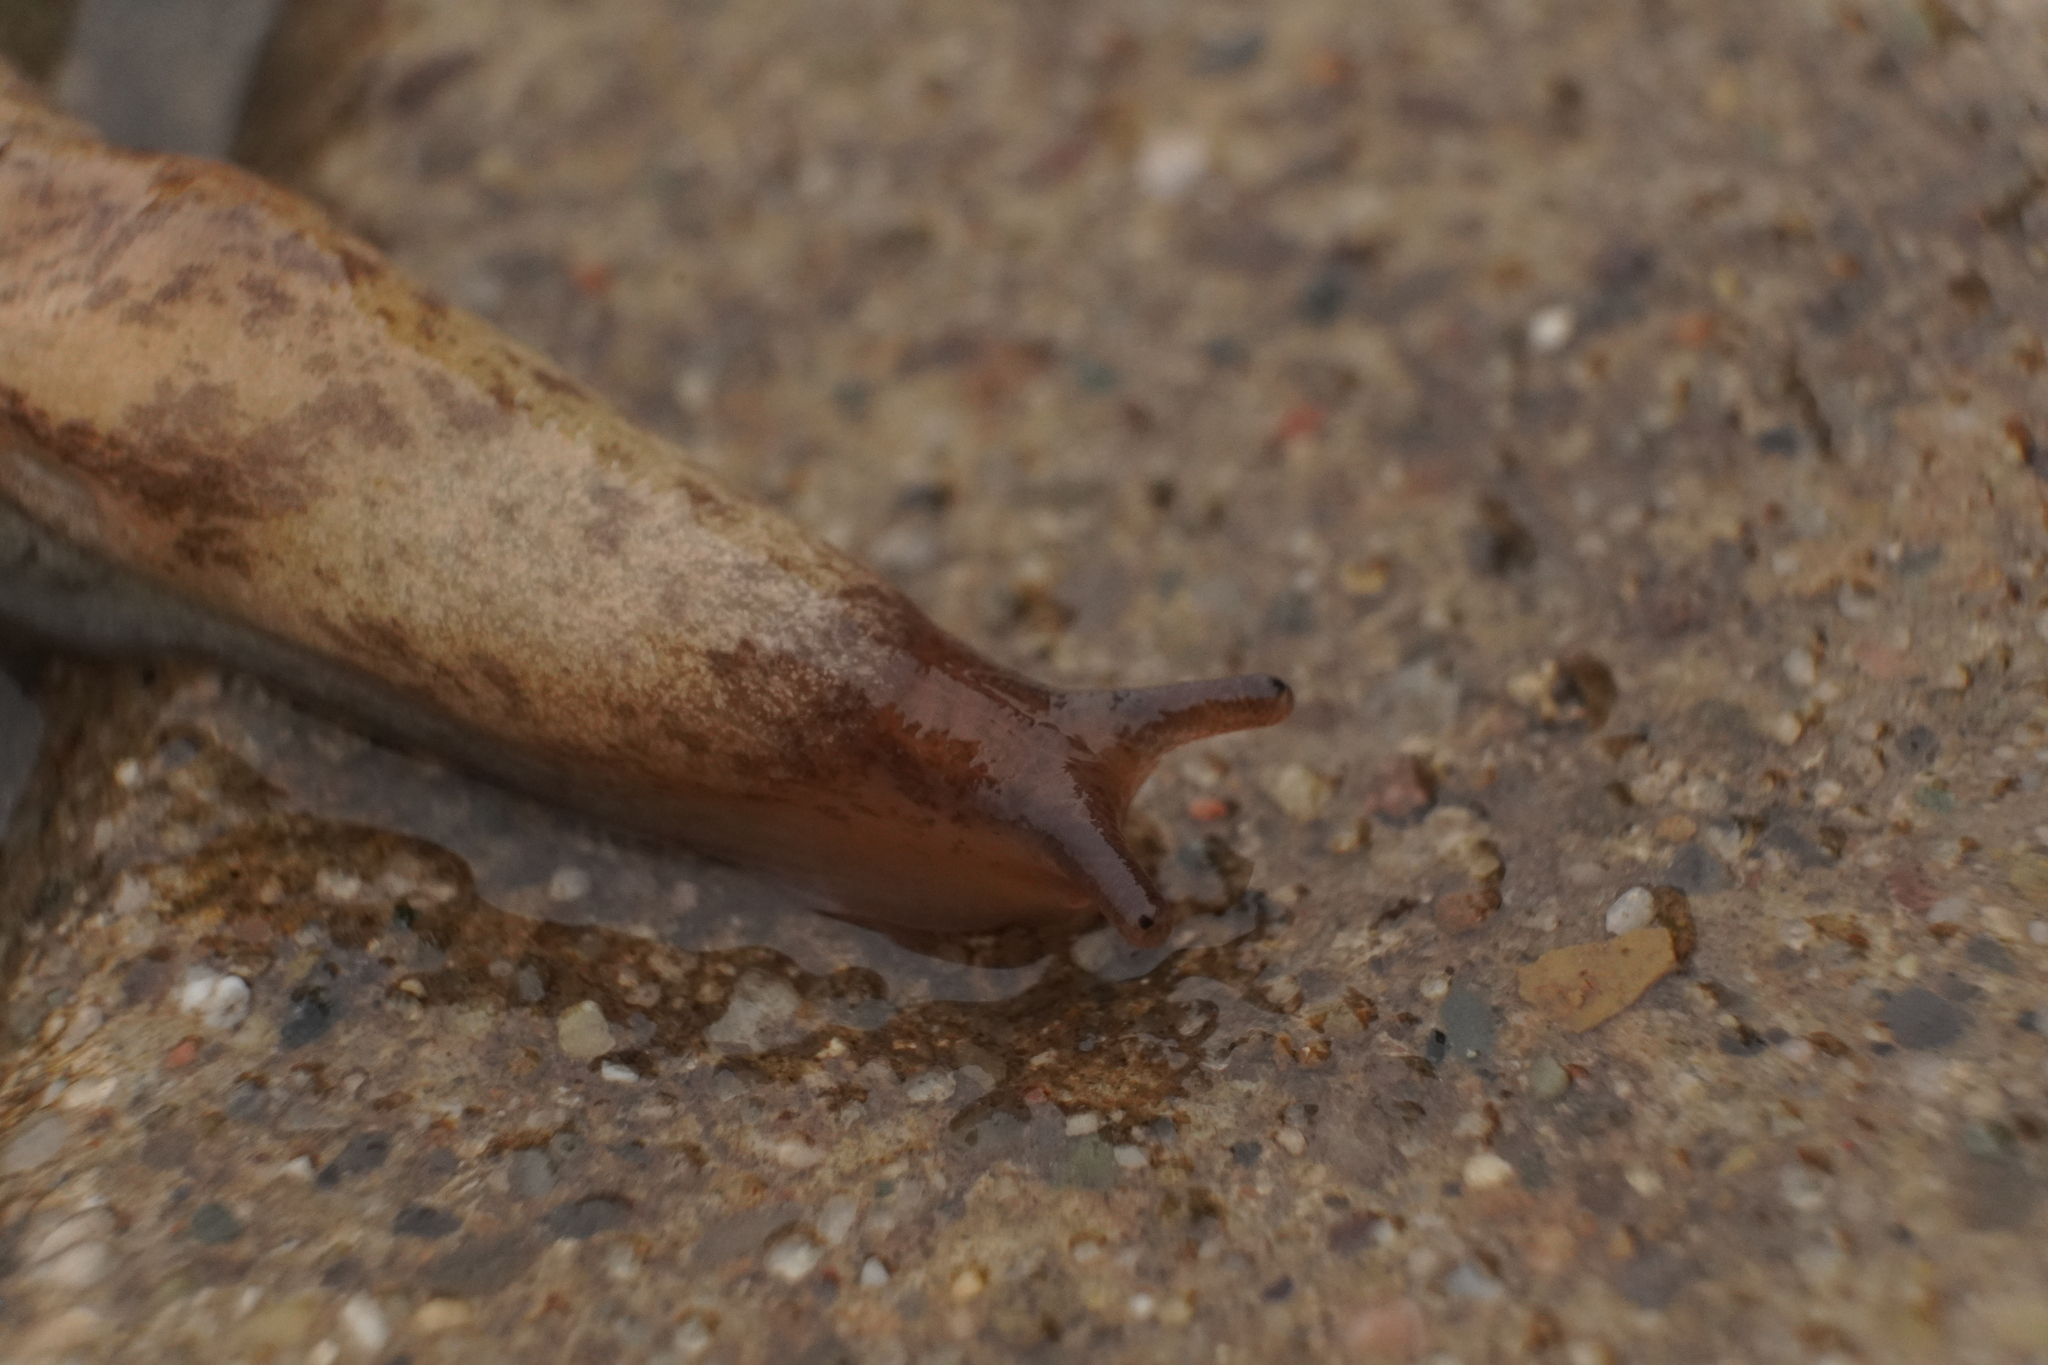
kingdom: Animalia
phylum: Mollusca
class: Gastropoda
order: Stylommatophora
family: Agriolimacidae
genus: Deroceras
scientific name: Deroceras reticulatum
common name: Gray field slug
